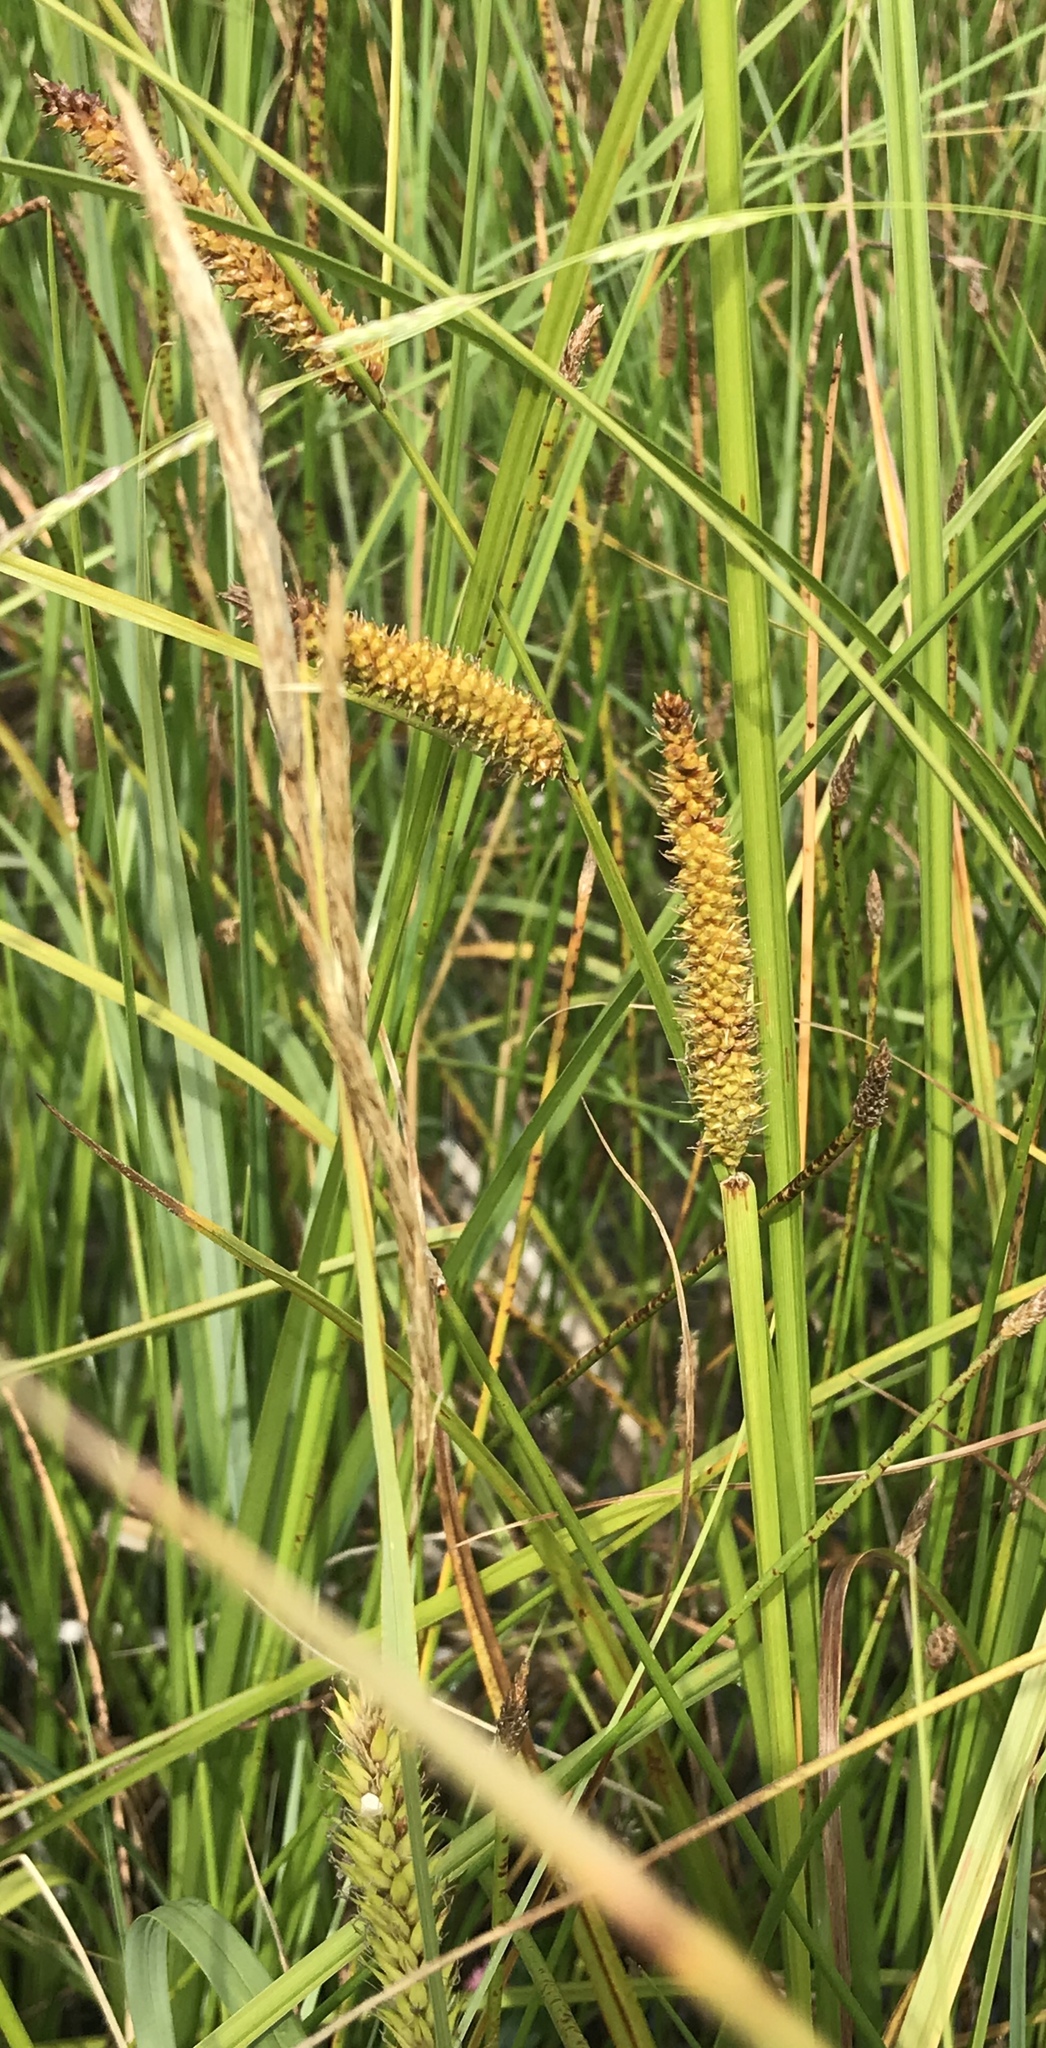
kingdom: Plantae
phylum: Tracheophyta
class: Liliopsida
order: Poales
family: Cyperaceae
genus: Carex
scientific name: Carex utriculata
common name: Beaked sedge
